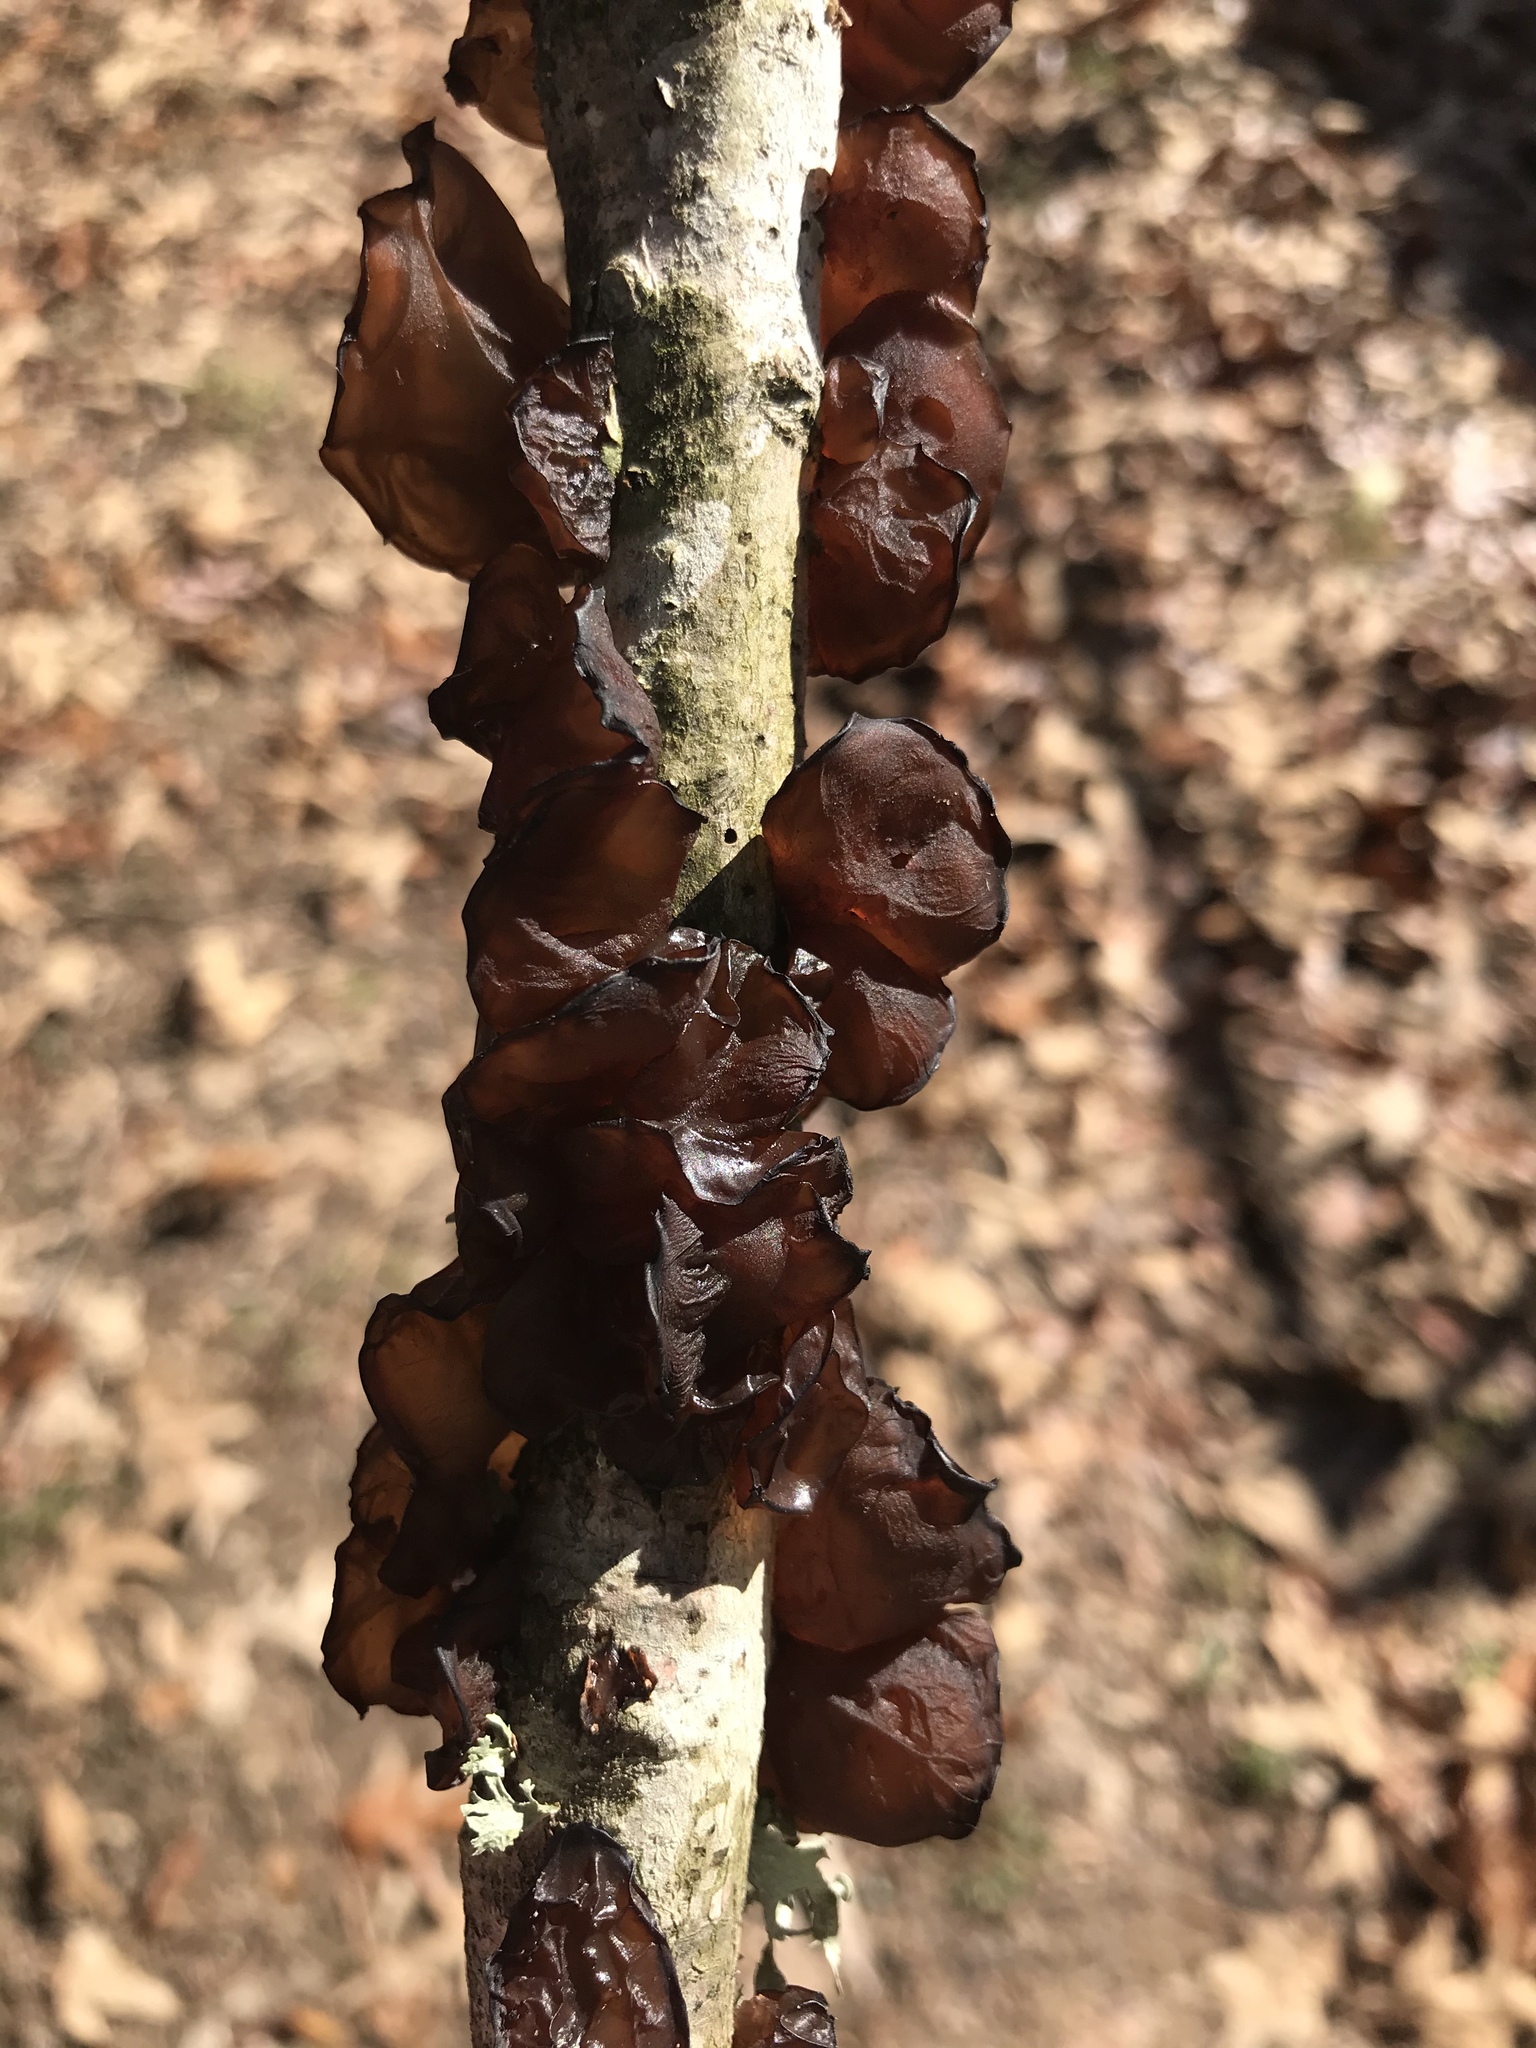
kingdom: Fungi
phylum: Basidiomycota
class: Agaricomycetes
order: Auriculariales
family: Auriculariaceae
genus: Exidia
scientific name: Exidia
